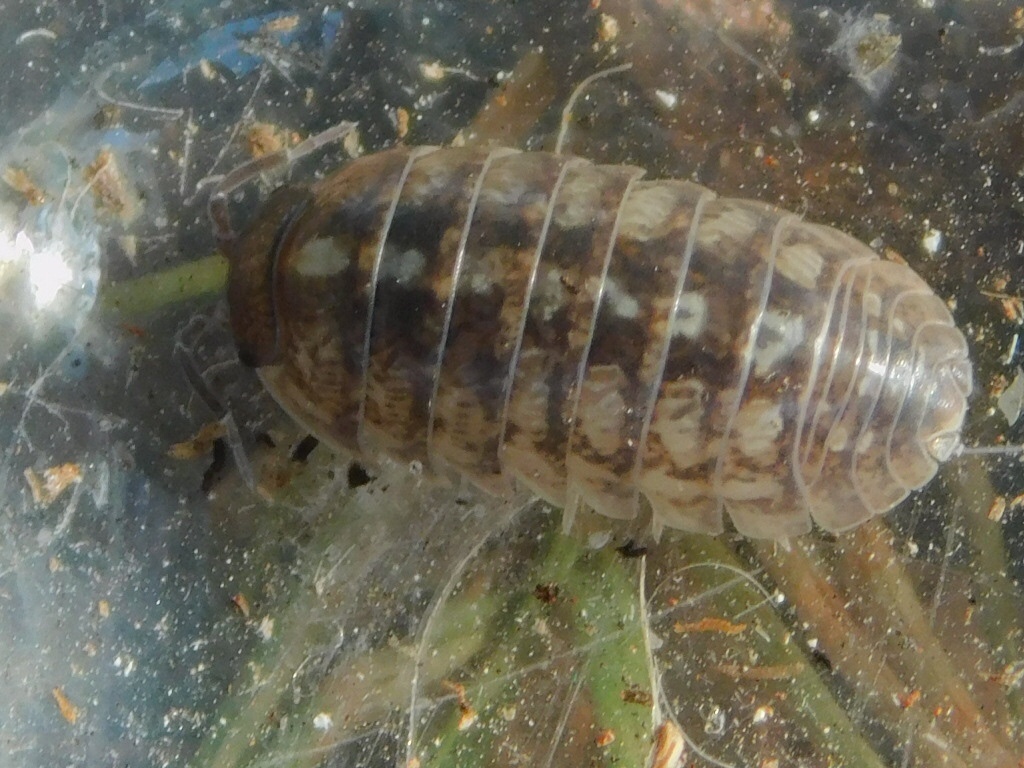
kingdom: Animalia
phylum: Arthropoda
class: Malacostraca
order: Isopoda
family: Armadillidiidae
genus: Armadillidium
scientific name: Armadillidium vulgare
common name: Common pill woodlouse
